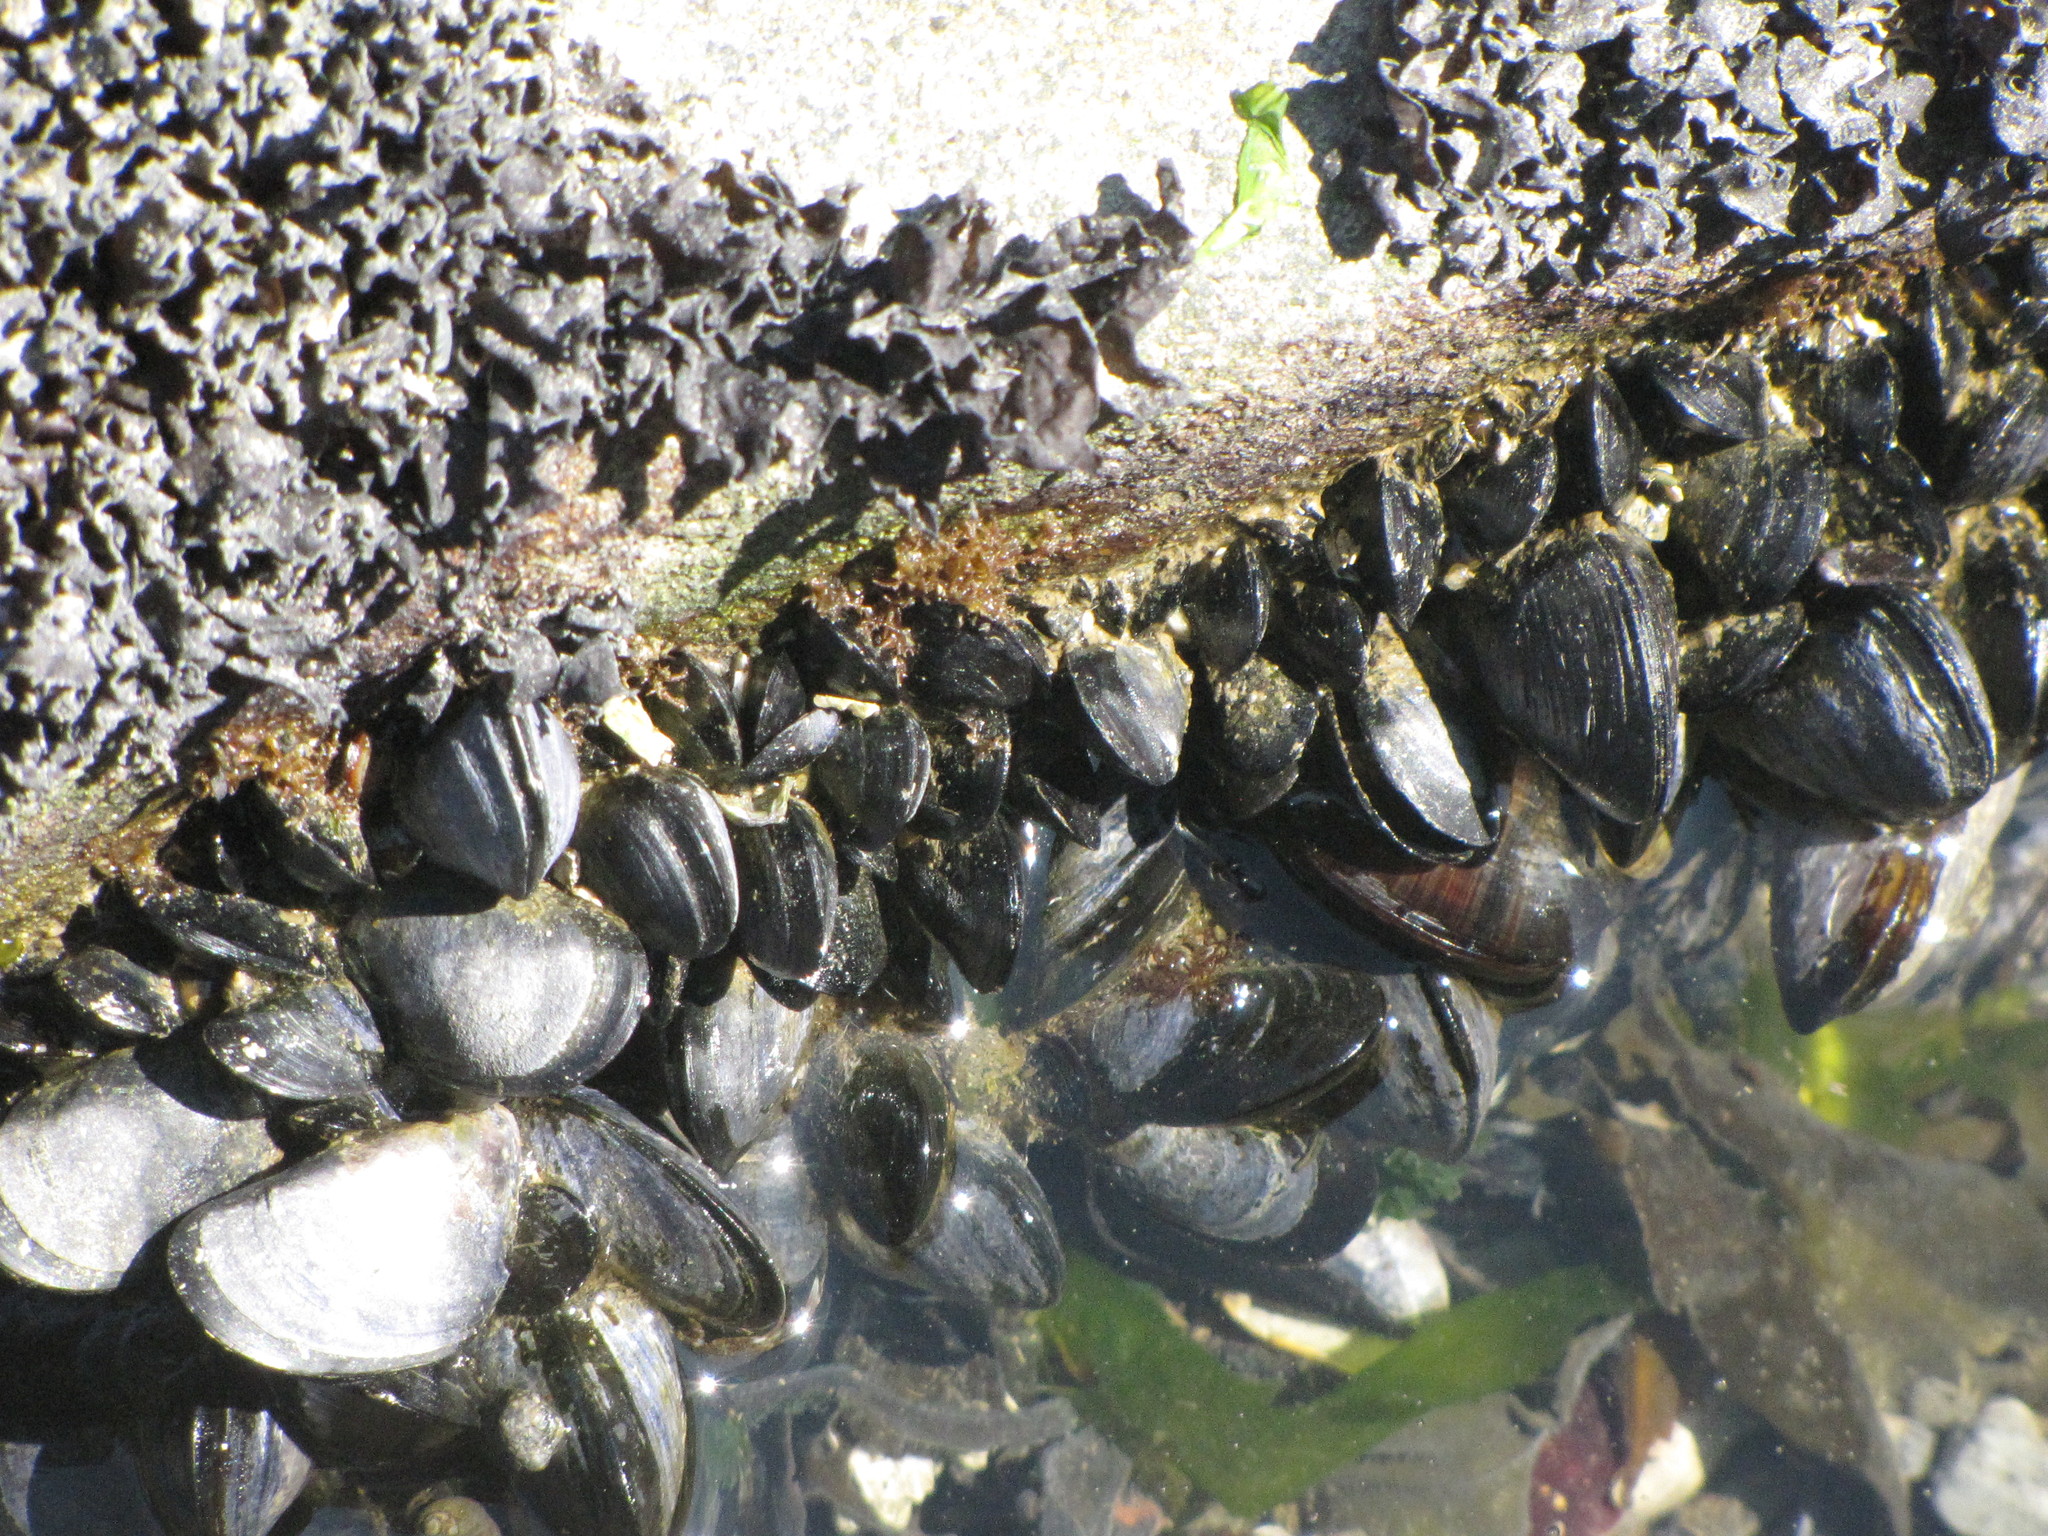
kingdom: Animalia
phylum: Mollusca
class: Bivalvia
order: Mytilida
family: Mytilidae
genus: Mytilus
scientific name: Mytilus
